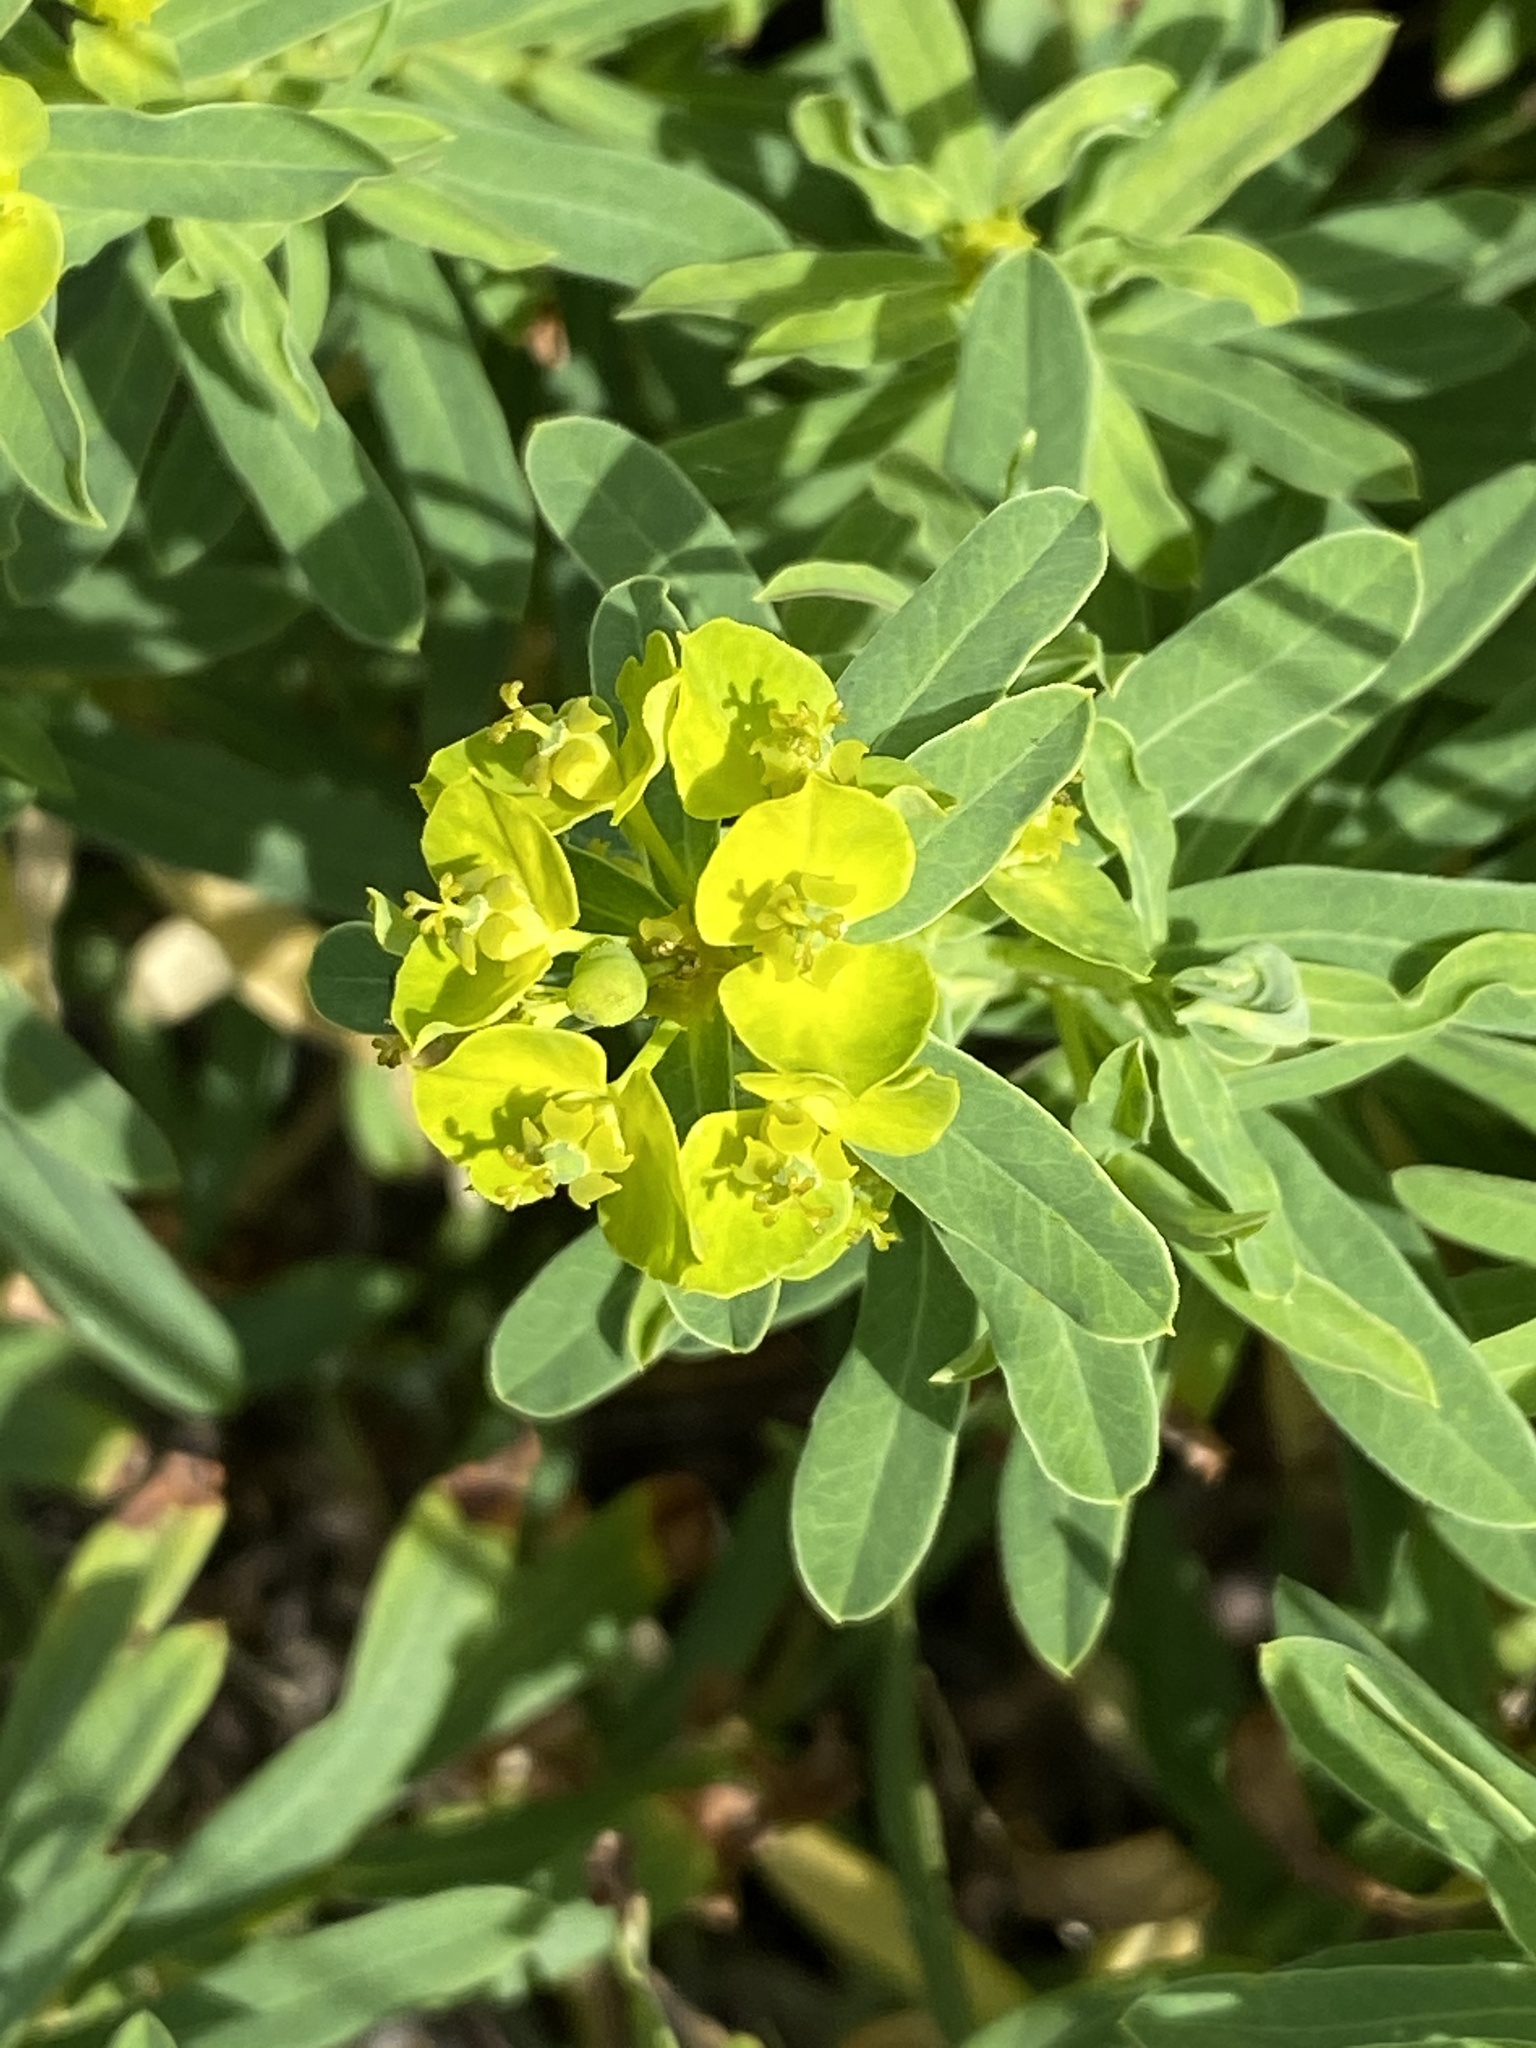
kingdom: Plantae
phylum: Tracheophyta
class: Magnoliopsida
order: Malpighiales
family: Euphorbiaceae
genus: Euphorbia
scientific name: Euphorbia esula
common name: Leafy spurge
